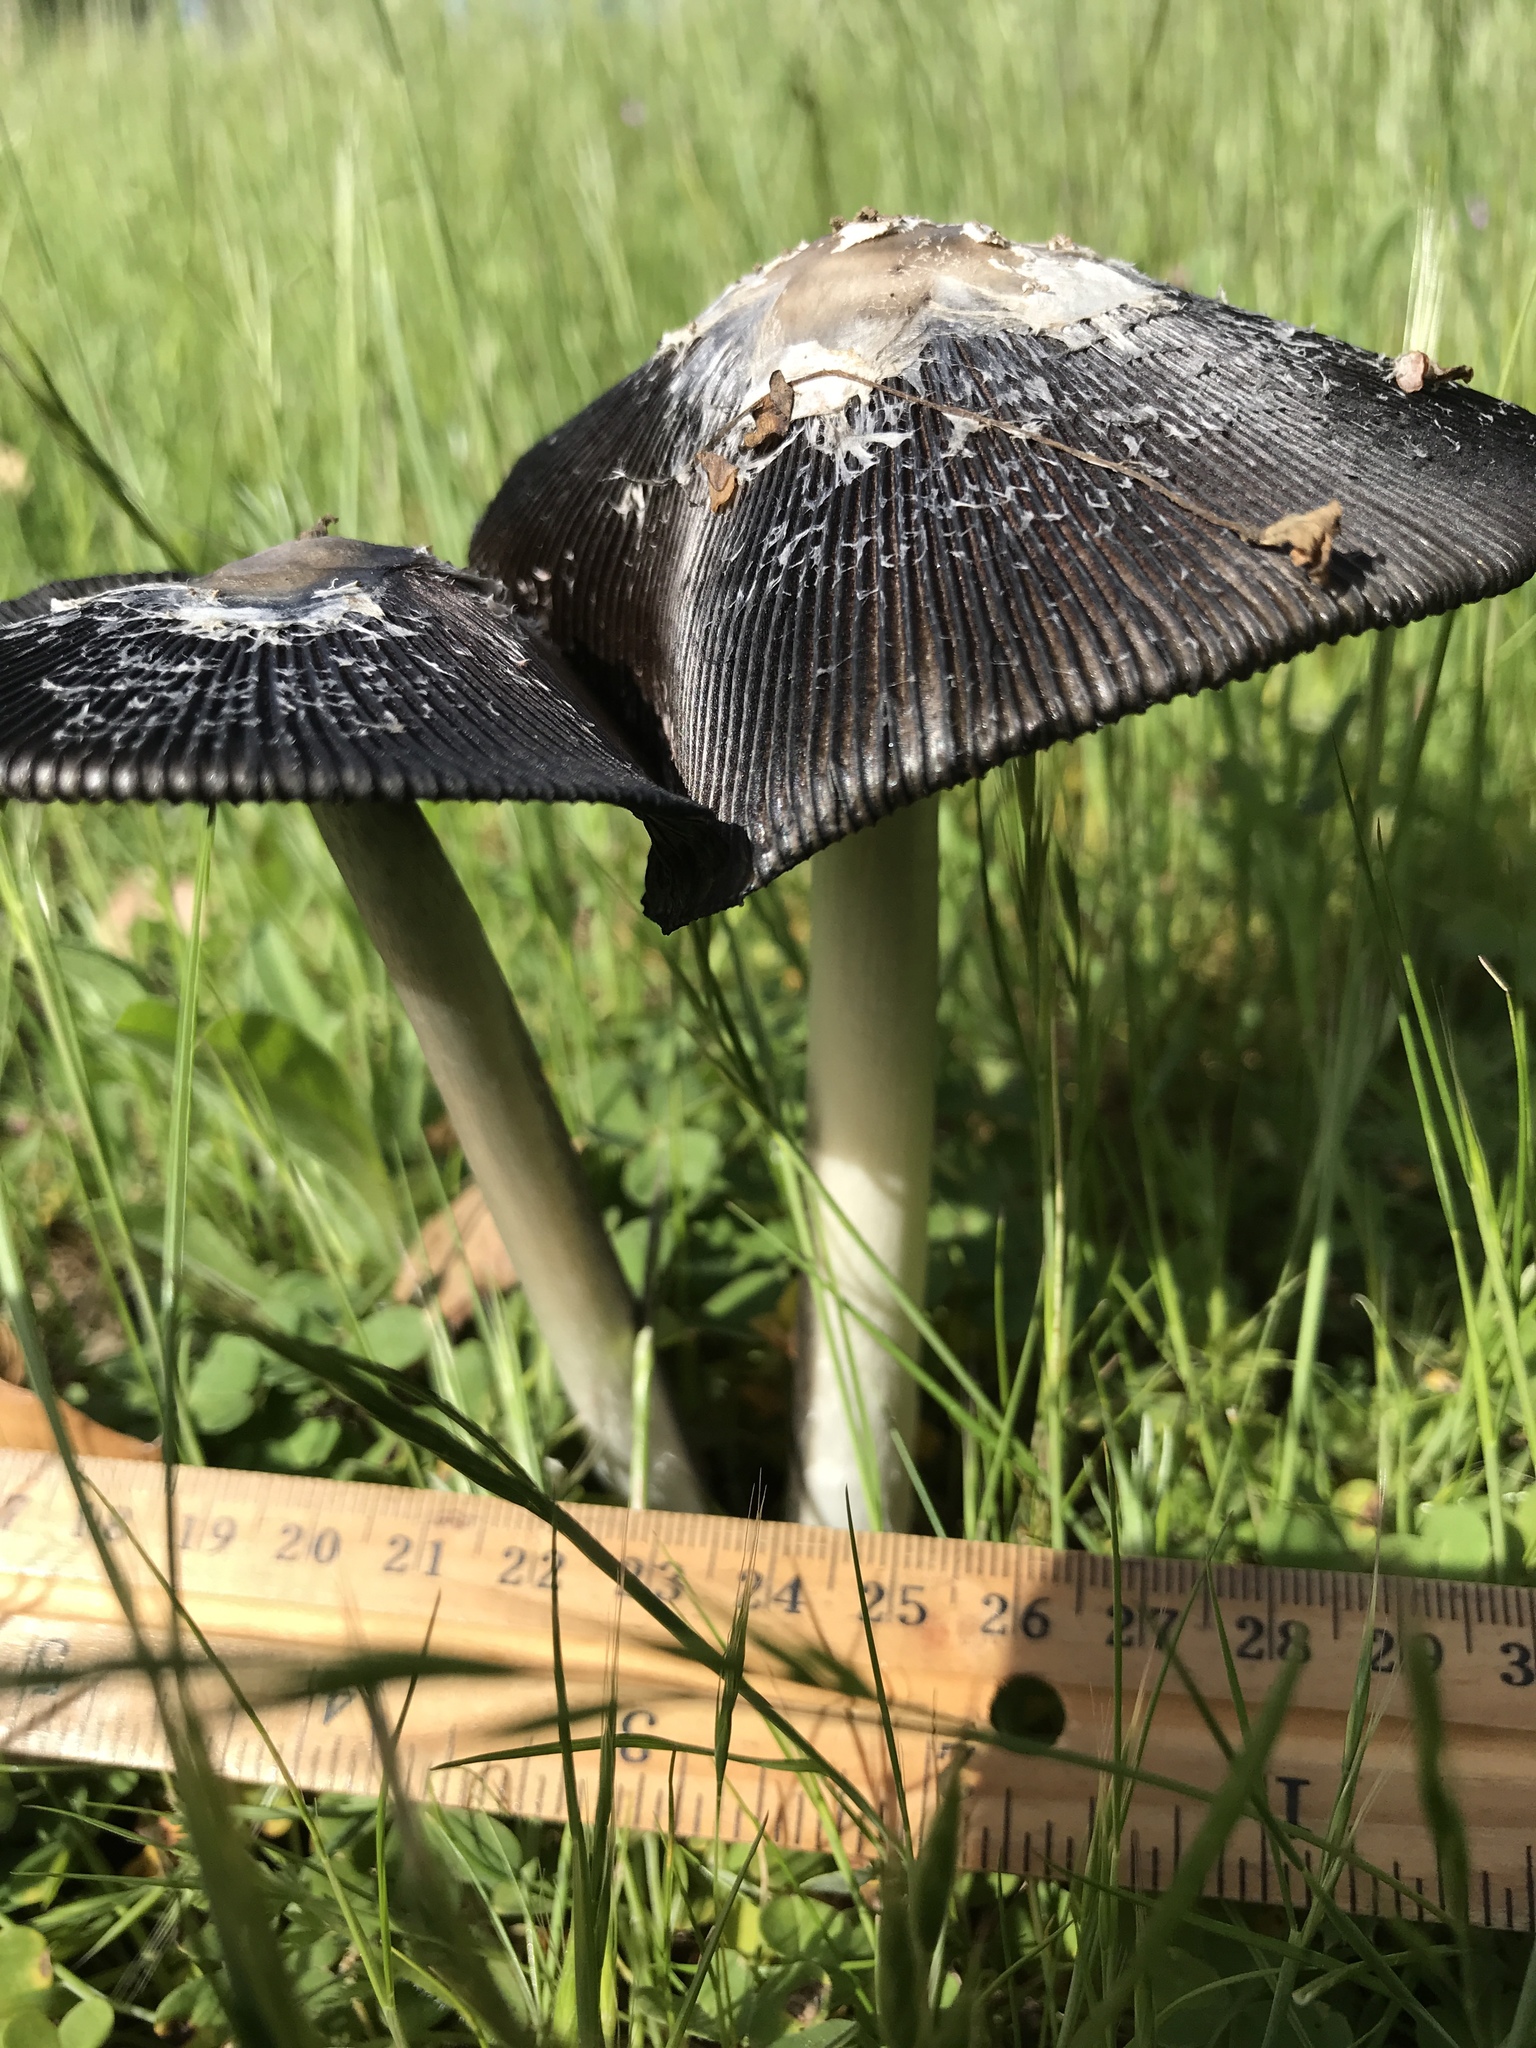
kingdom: Fungi
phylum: Basidiomycota
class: Agaricomycetes
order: Agaricales
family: Agaricaceae
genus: Coprinus
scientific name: Coprinus calyptratus
